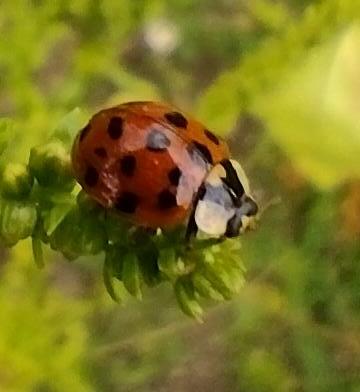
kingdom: Animalia
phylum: Arthropoda
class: Insecta
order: Coleoptera
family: Coccinellidae
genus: Harmonia
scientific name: Harmonia axyridis
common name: Harlequin ladybird
